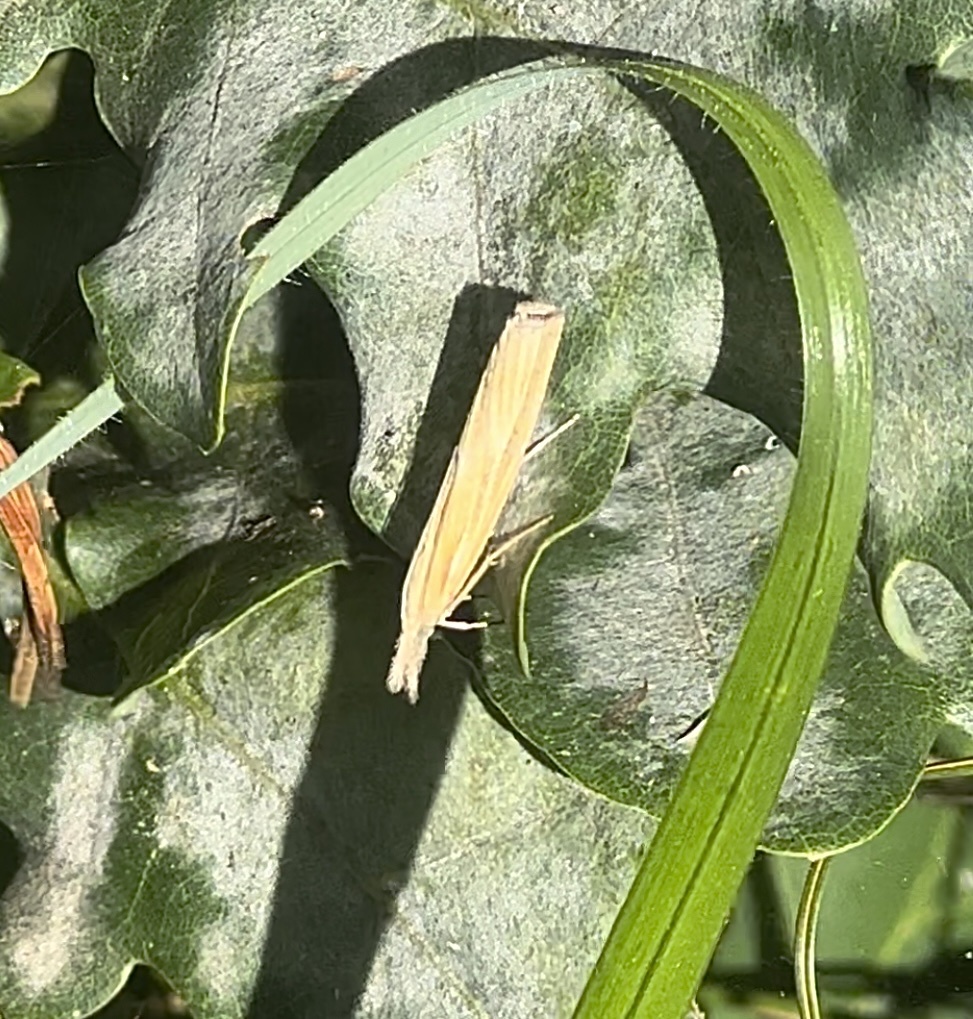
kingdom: Animalia
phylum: Arthropoda
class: Insecta
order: Lepidoptera
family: Crambidae
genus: Agriphila
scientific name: Agriphila tristellus
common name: Common grass-veneer
